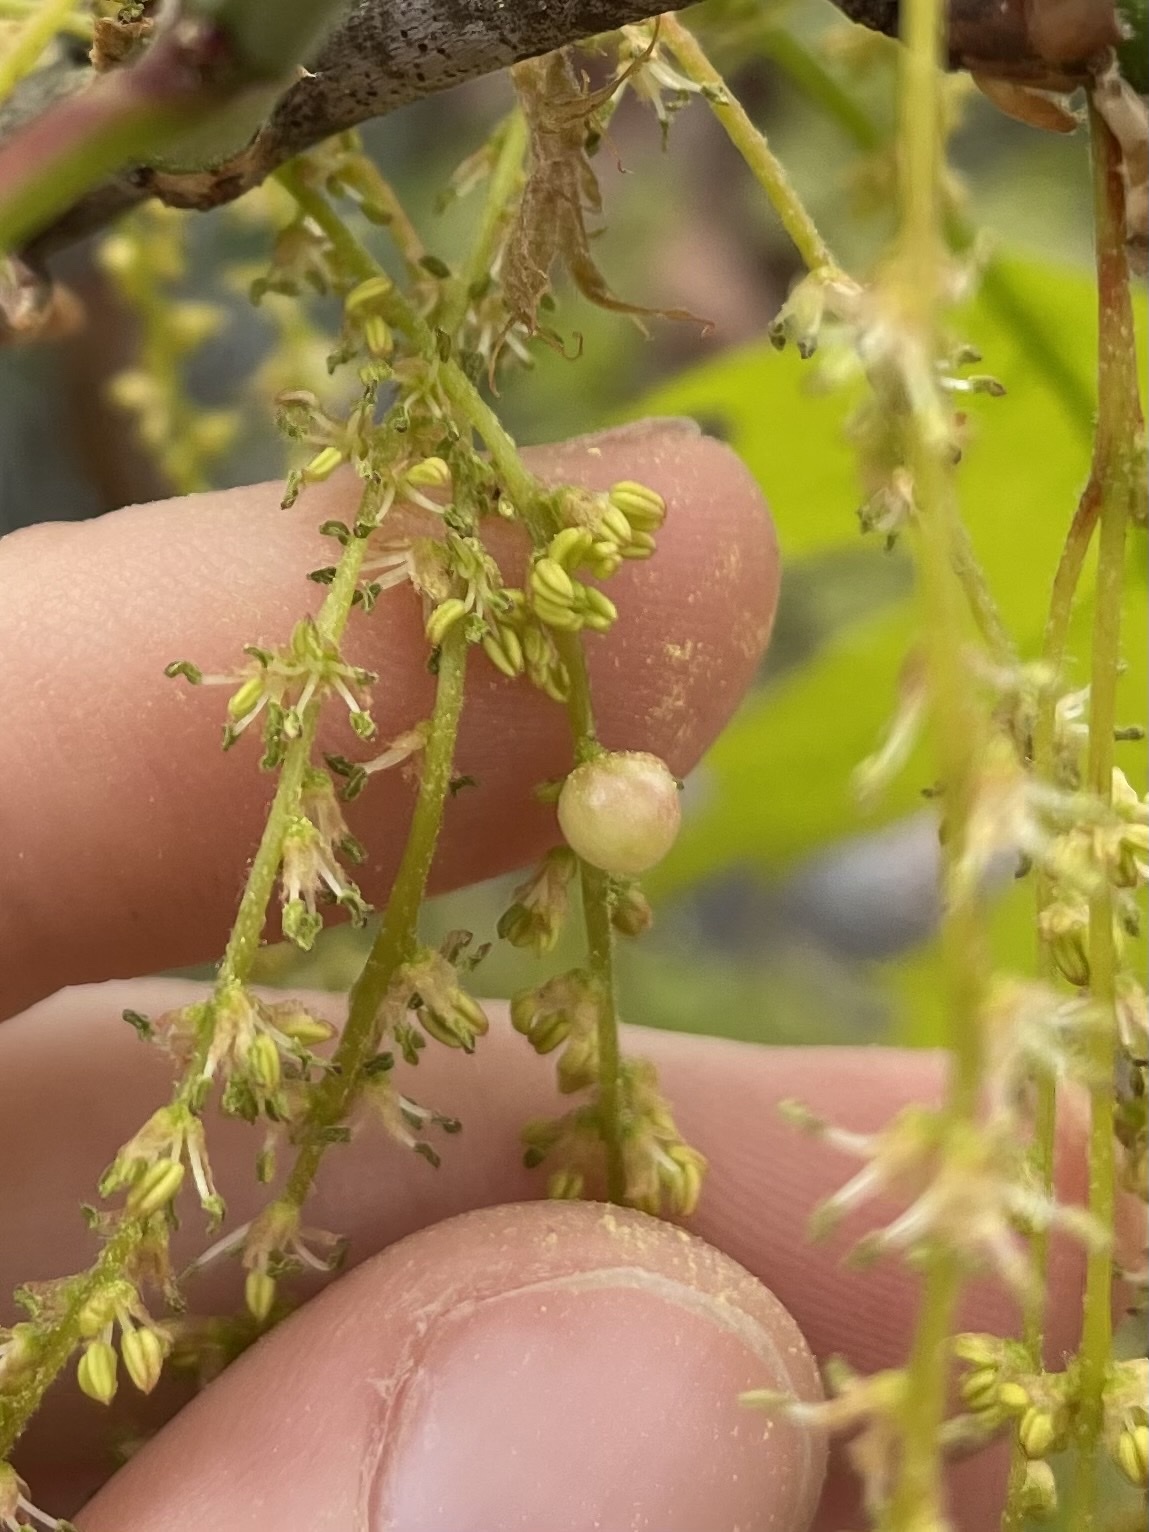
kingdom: Animalia
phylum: Arthropoda
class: Insecta
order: Hymenoptera
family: Cynipidae
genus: Callirhytis
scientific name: Callirhytis
